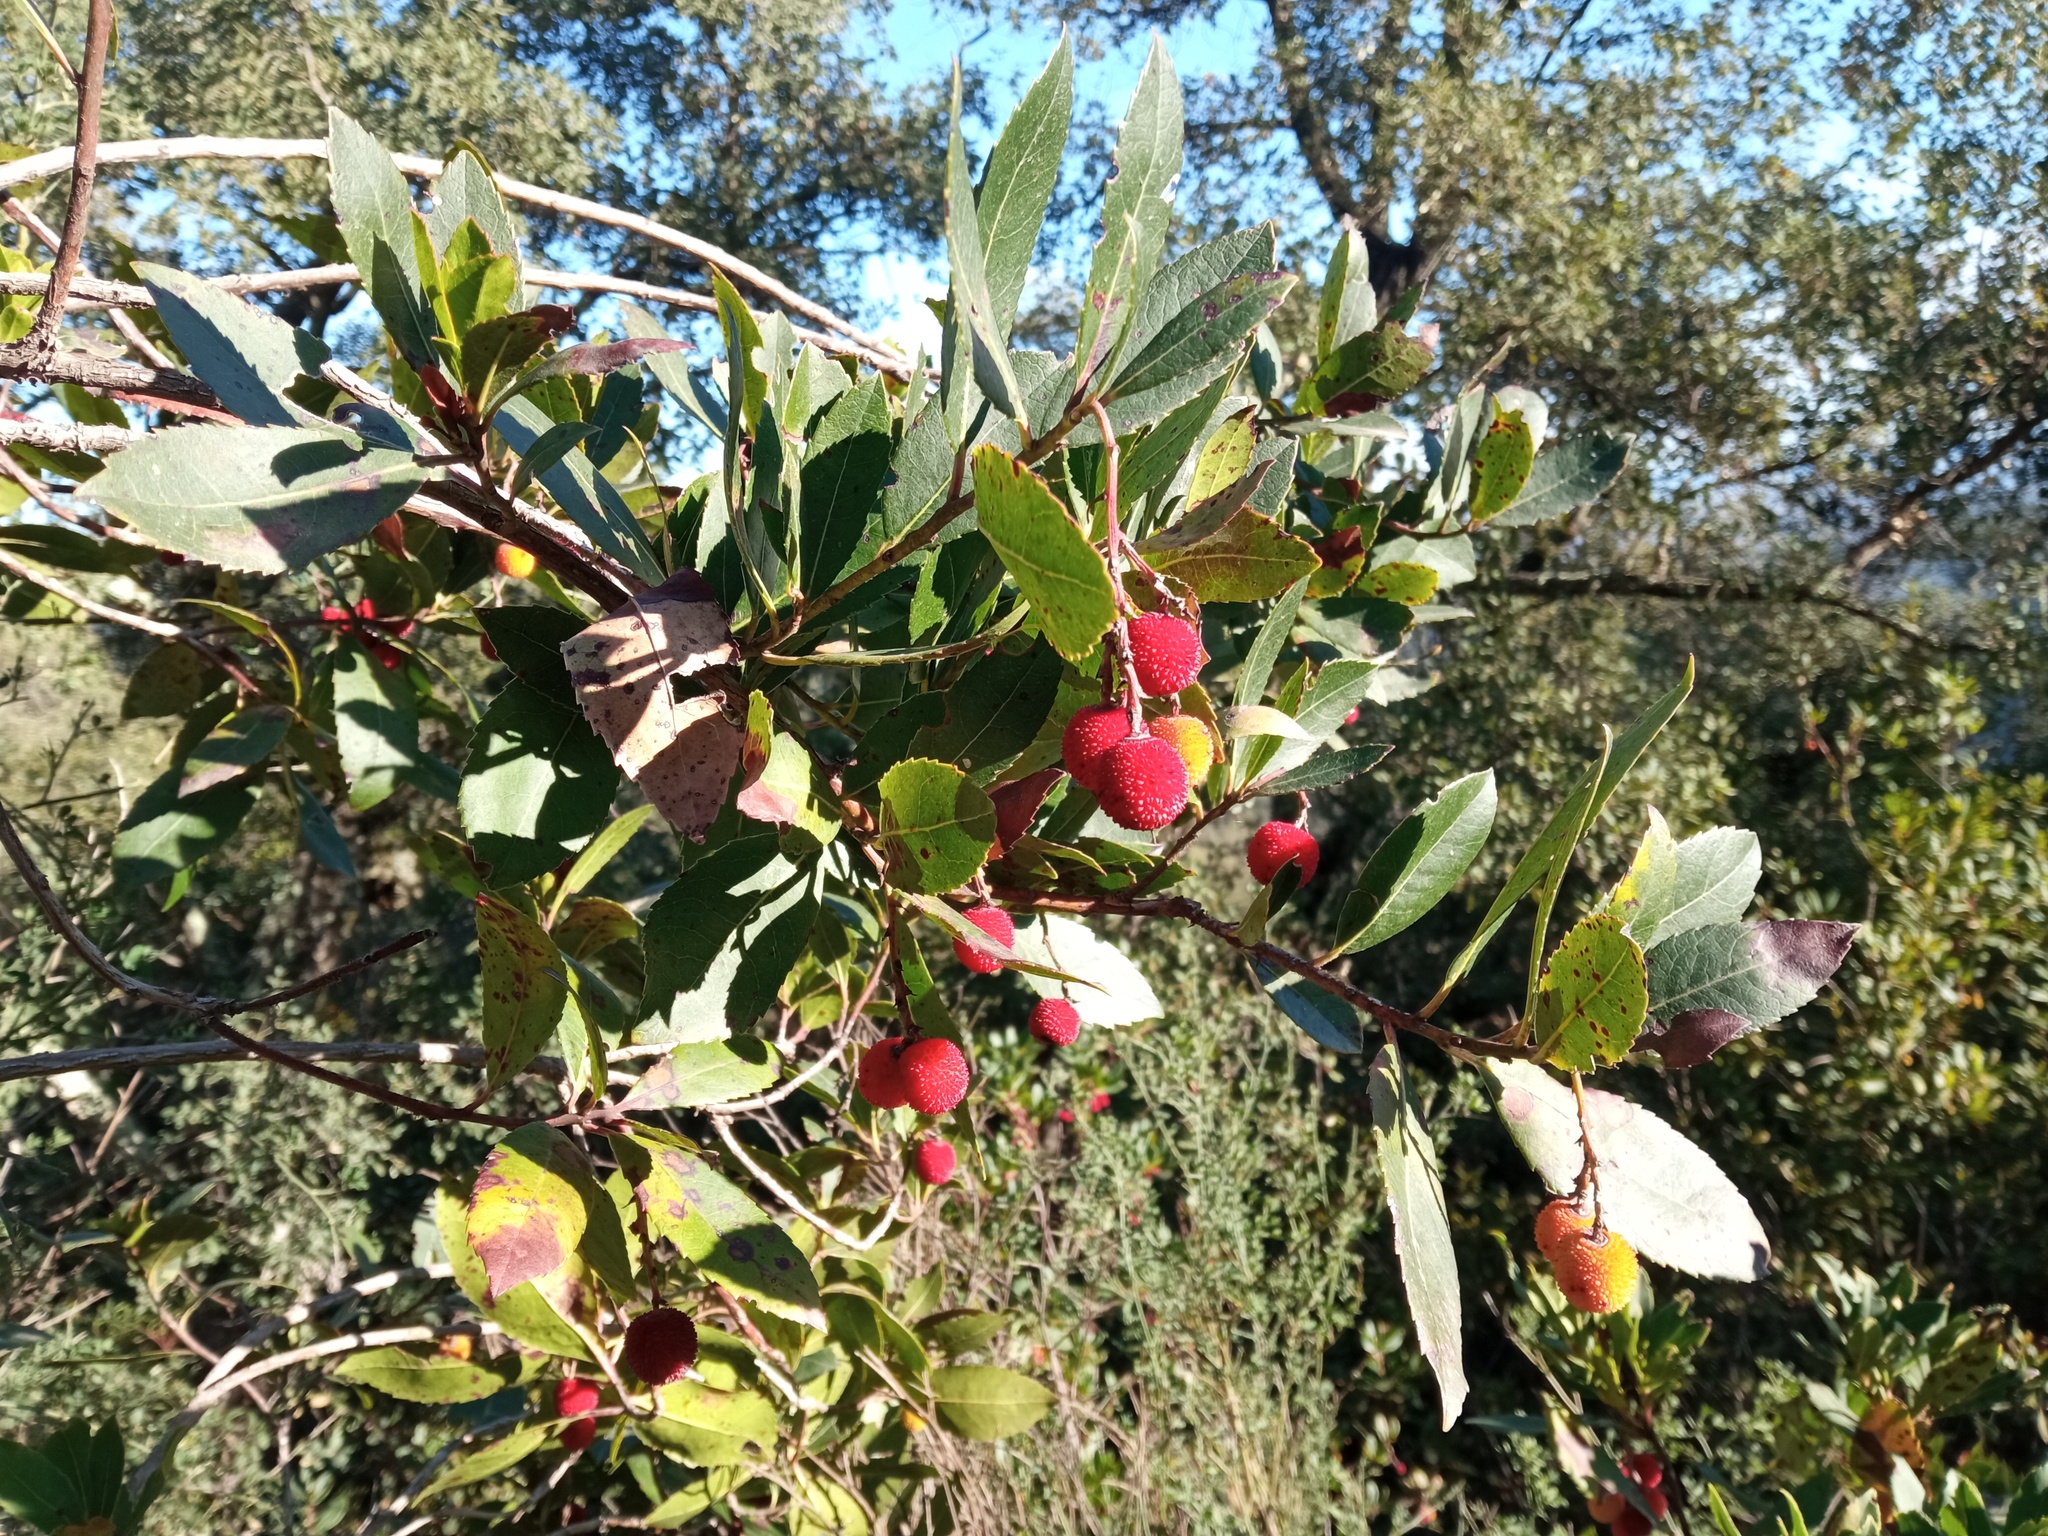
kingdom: Plantae
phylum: Tracheophyta
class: Magnoliopsida
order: Ericales
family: Ericaceae
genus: Arbutus
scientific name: Arbutus unedo
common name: Strawberry-tree
